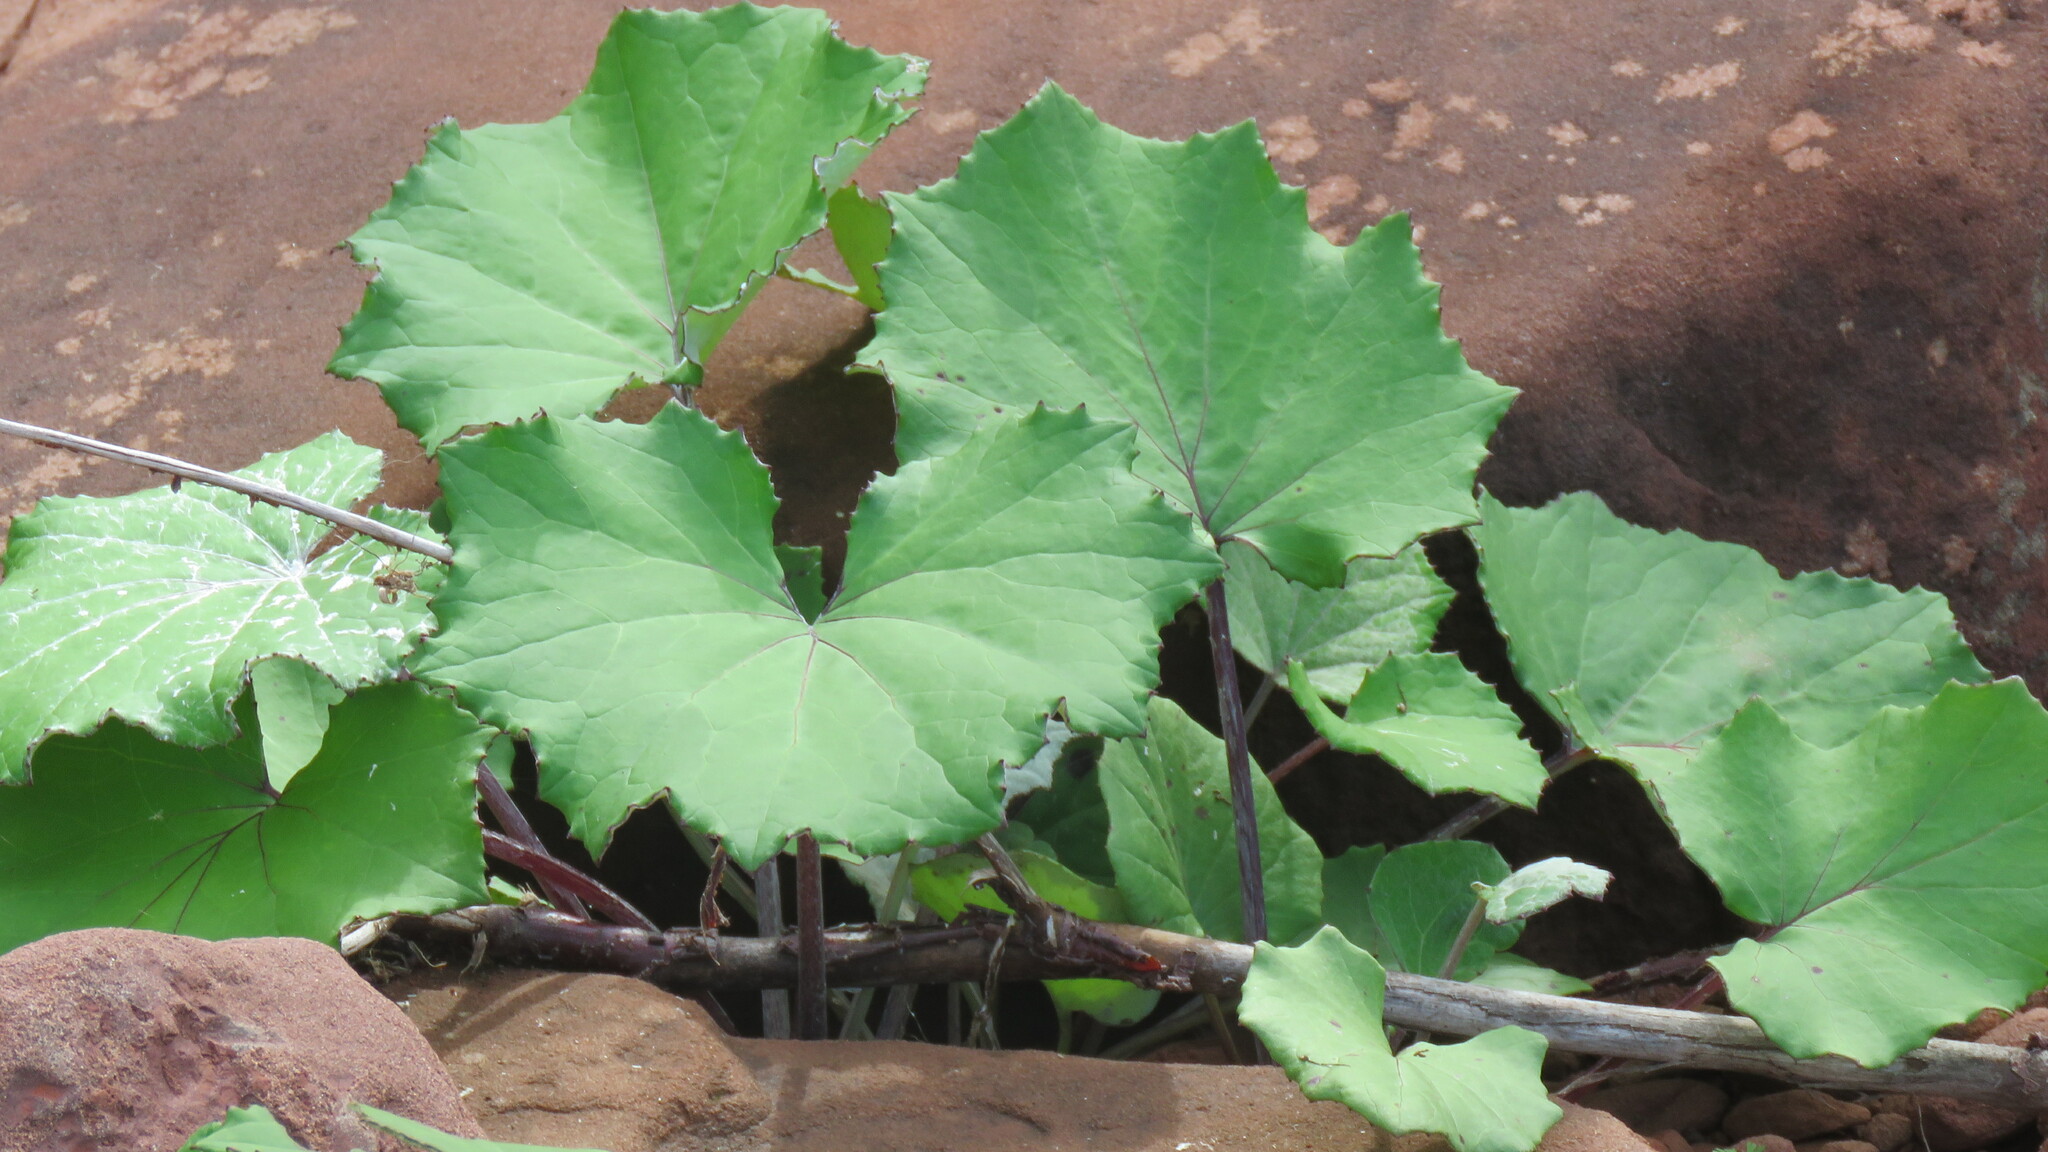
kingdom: Plantae
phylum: Tracheophyta
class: Magnoliopsida
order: Asterales
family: Asteraceae
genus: Tussilago
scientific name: Tussilago farfara
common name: Coltsfoot
